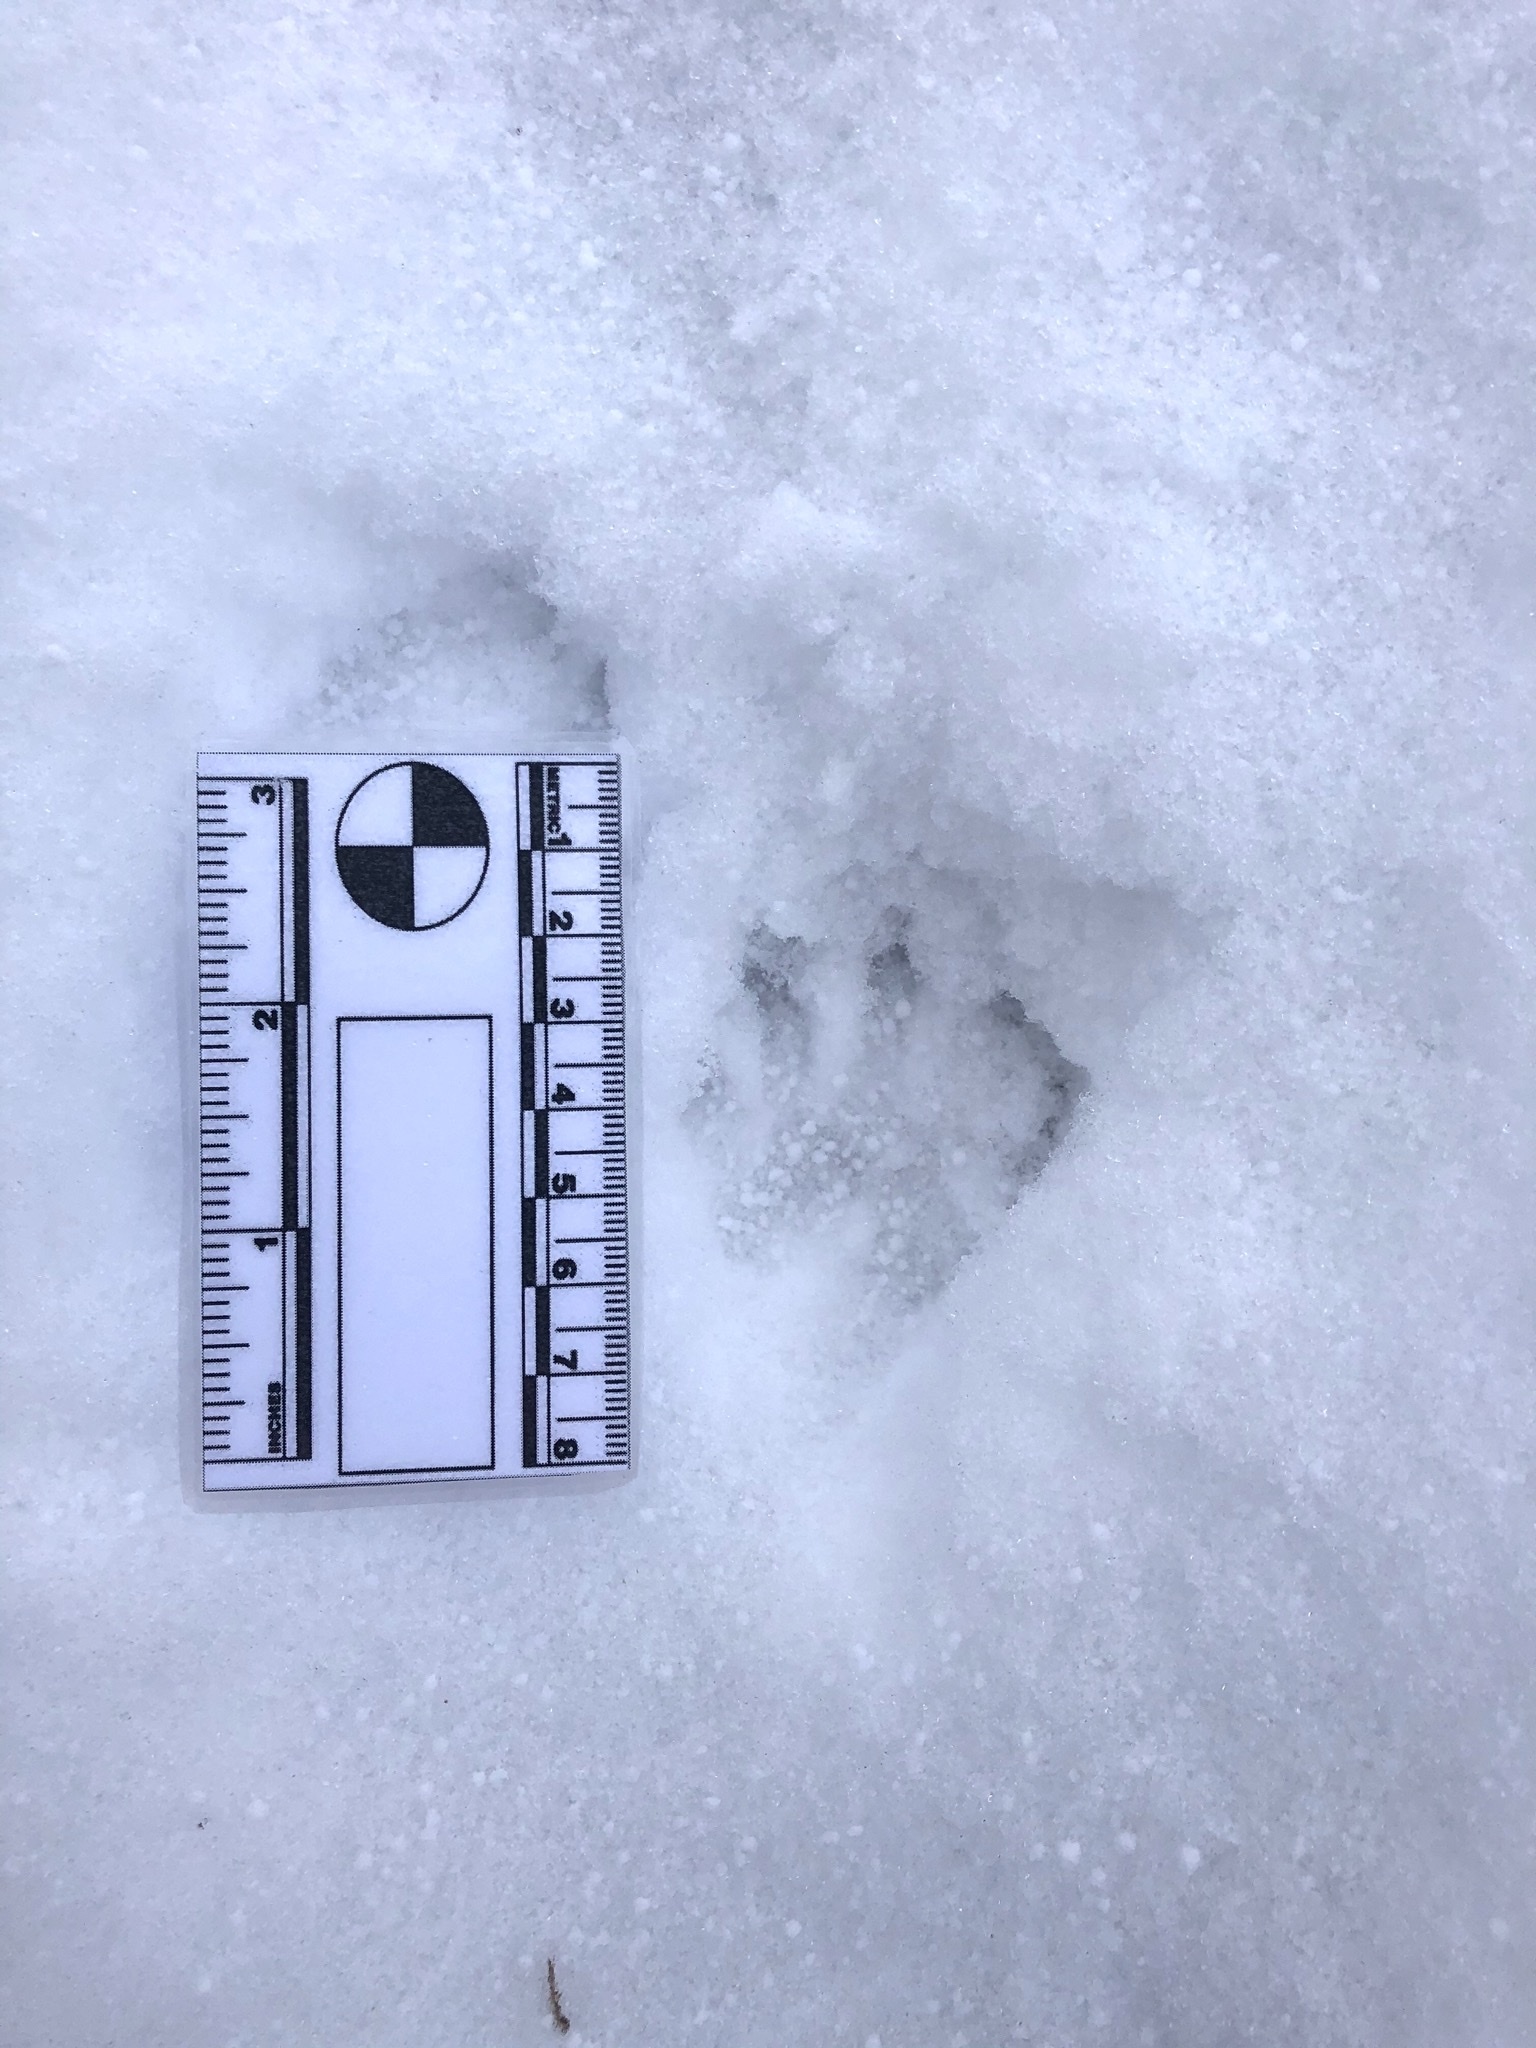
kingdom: Animalia
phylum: Chordata
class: Mammalia
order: Carnivora
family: Procyonidae
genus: Procyon
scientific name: Procyon lotor
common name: Raccoon
